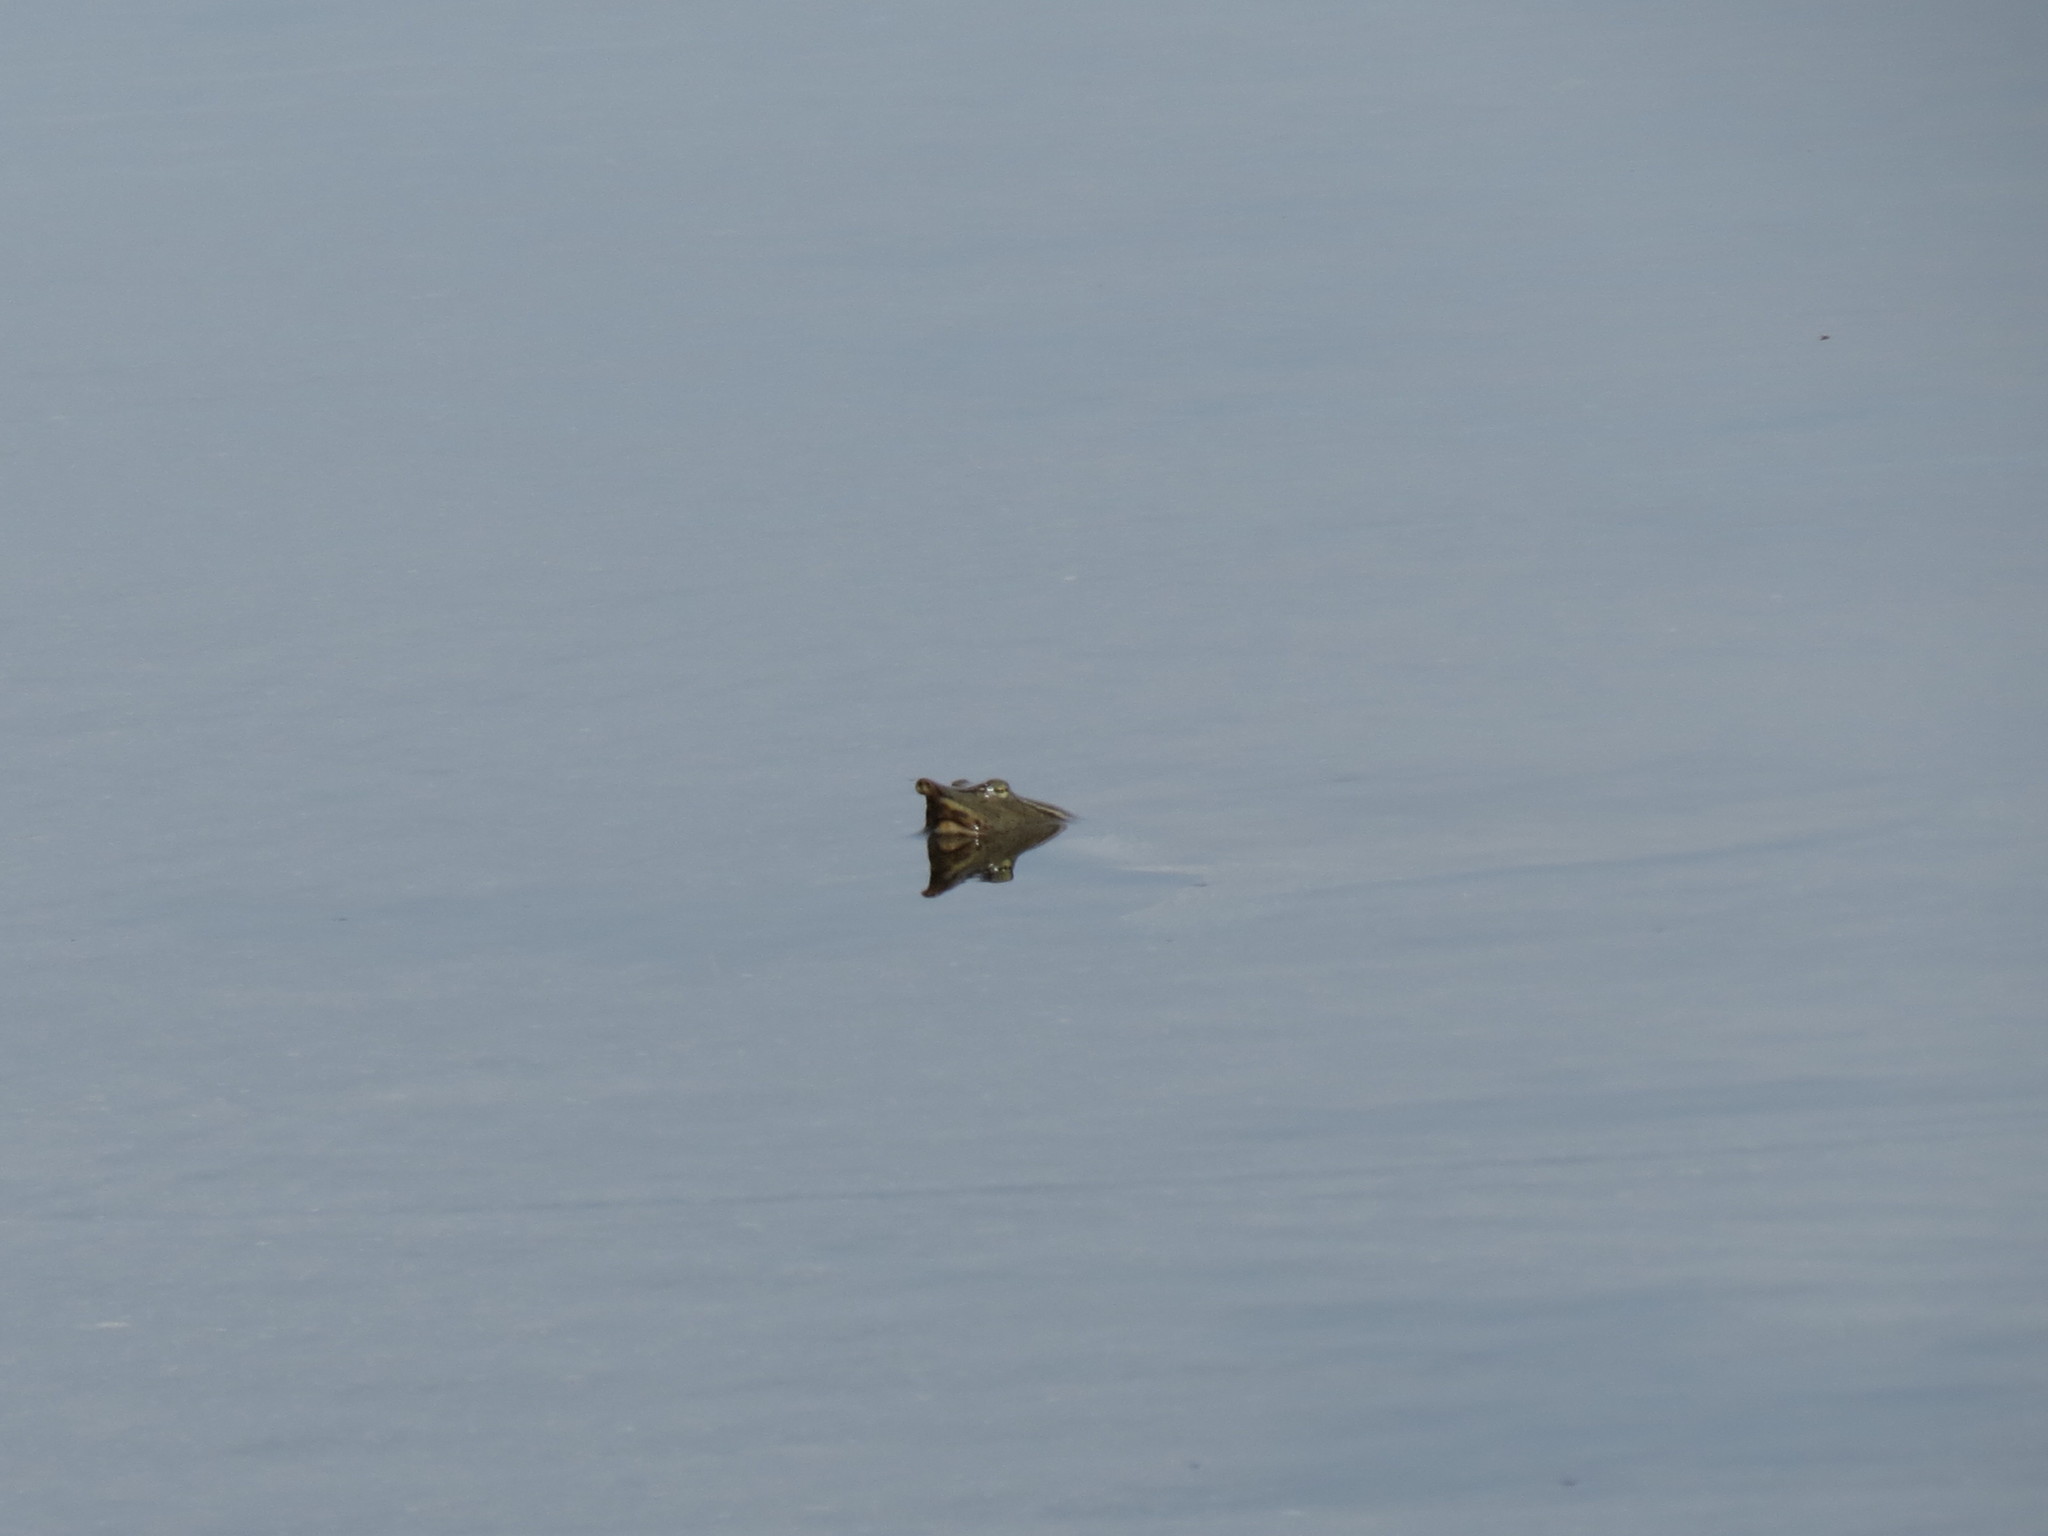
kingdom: Animalia
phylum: Chordata
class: Testudines
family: Trionychidae
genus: Apalone
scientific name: Apalone spinifera
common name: Spiny softshell turtle
